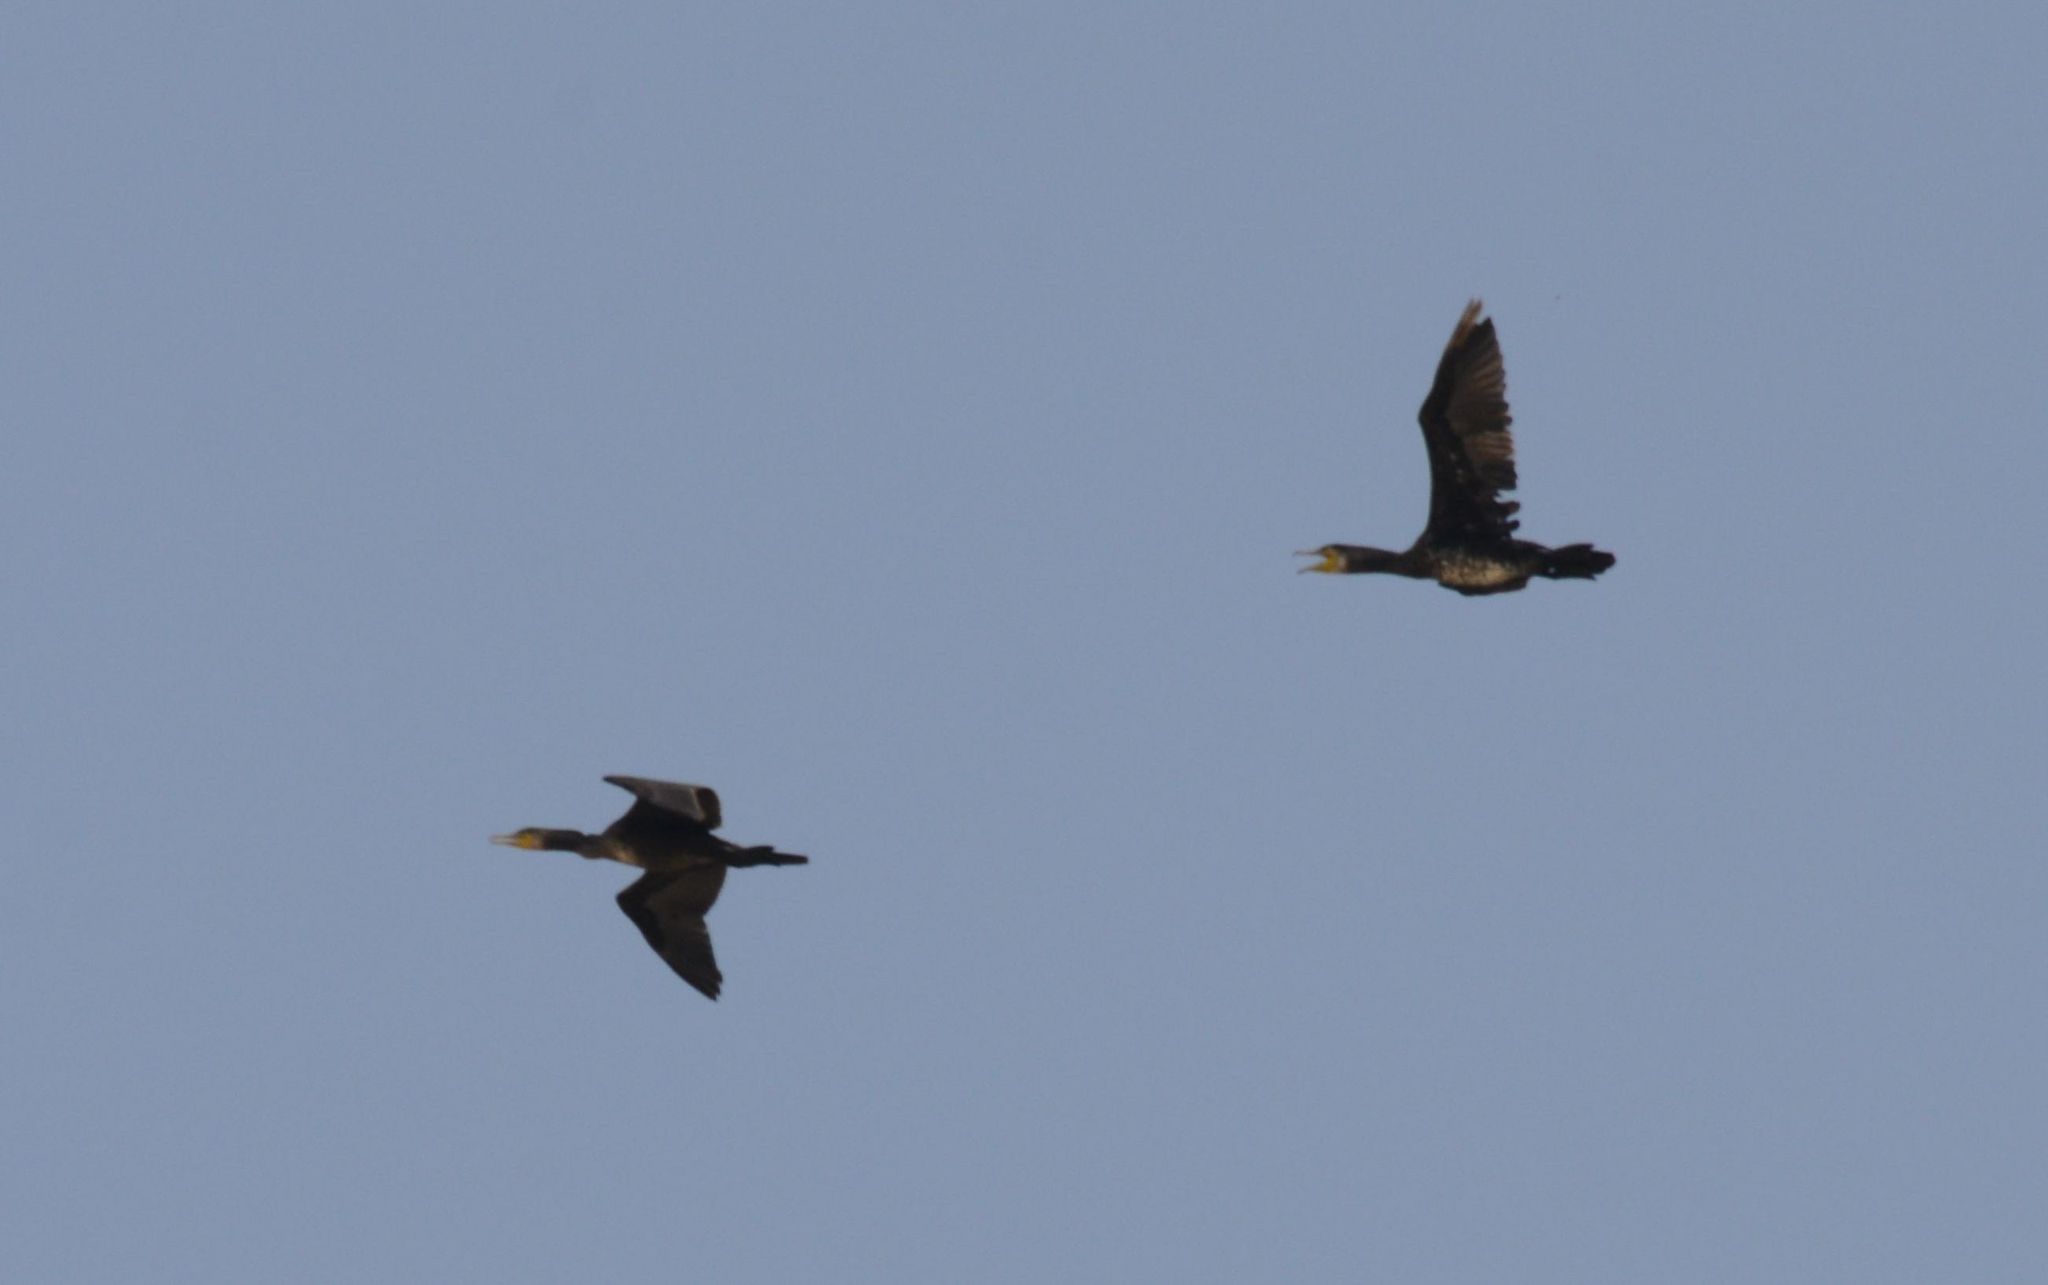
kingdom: Animalia
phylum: Chordata
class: Aves
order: Suliformes
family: Phalacrocoracidae
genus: Phalacrocorax
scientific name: Phalacrocorax carbo
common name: Great cormorant
